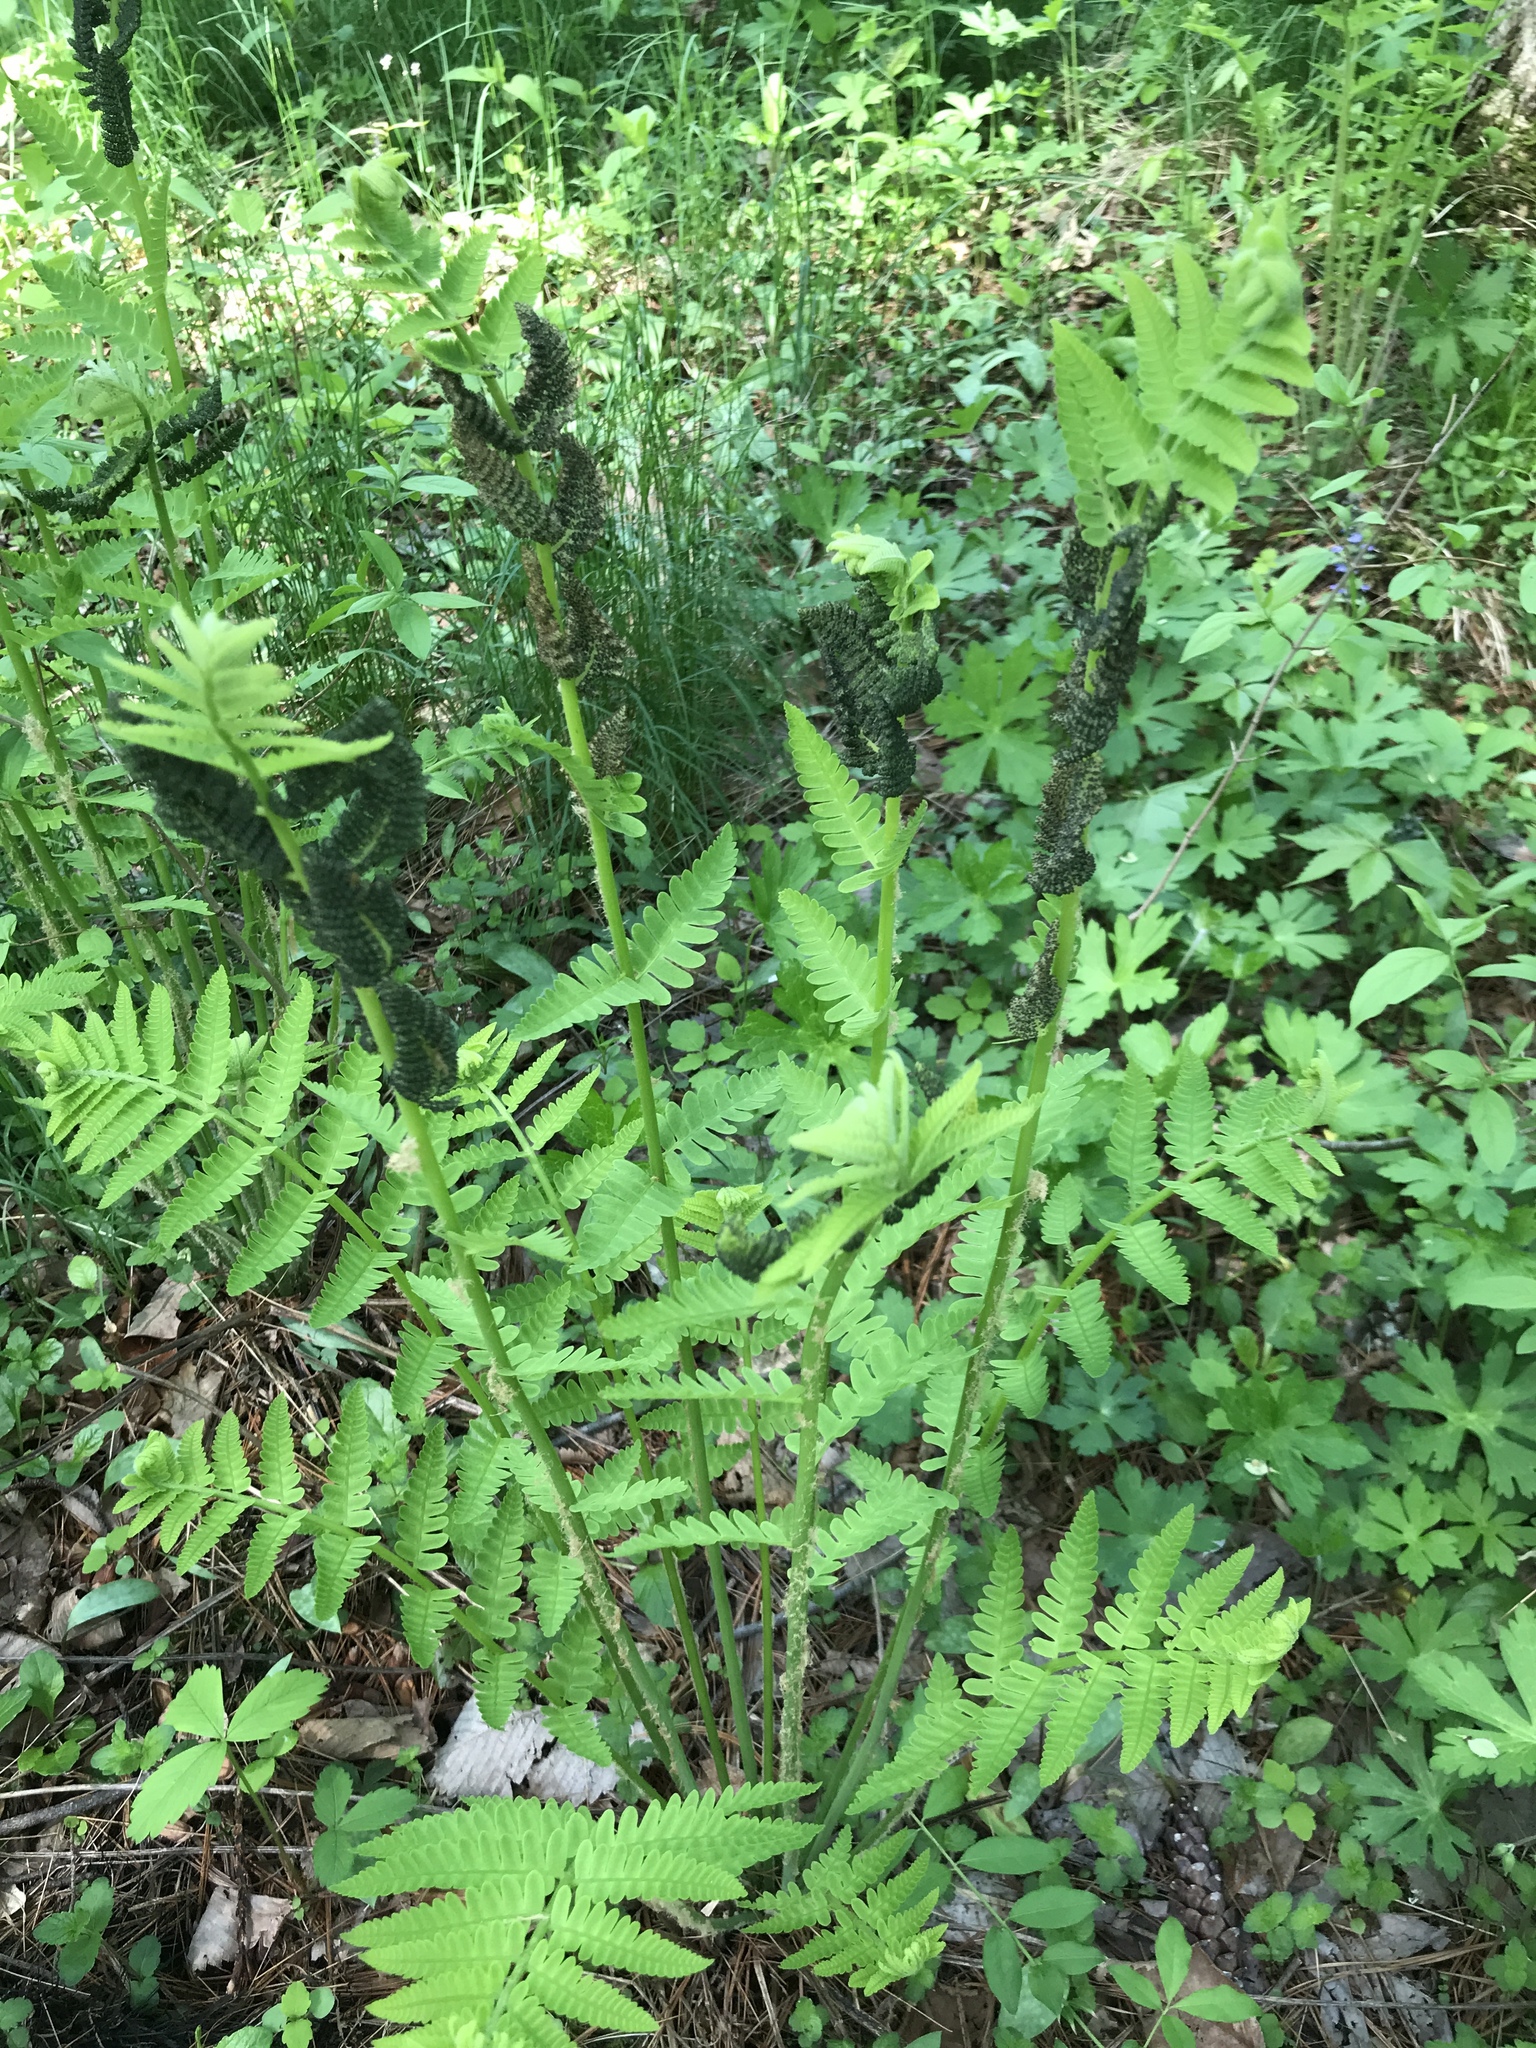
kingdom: Plantae
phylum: Tracheophyta
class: Polypodiopsida
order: Osmundales
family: Osmundaceae
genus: Claytosmunda
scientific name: Claytosmunda claytoniana
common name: Clayton's fern
